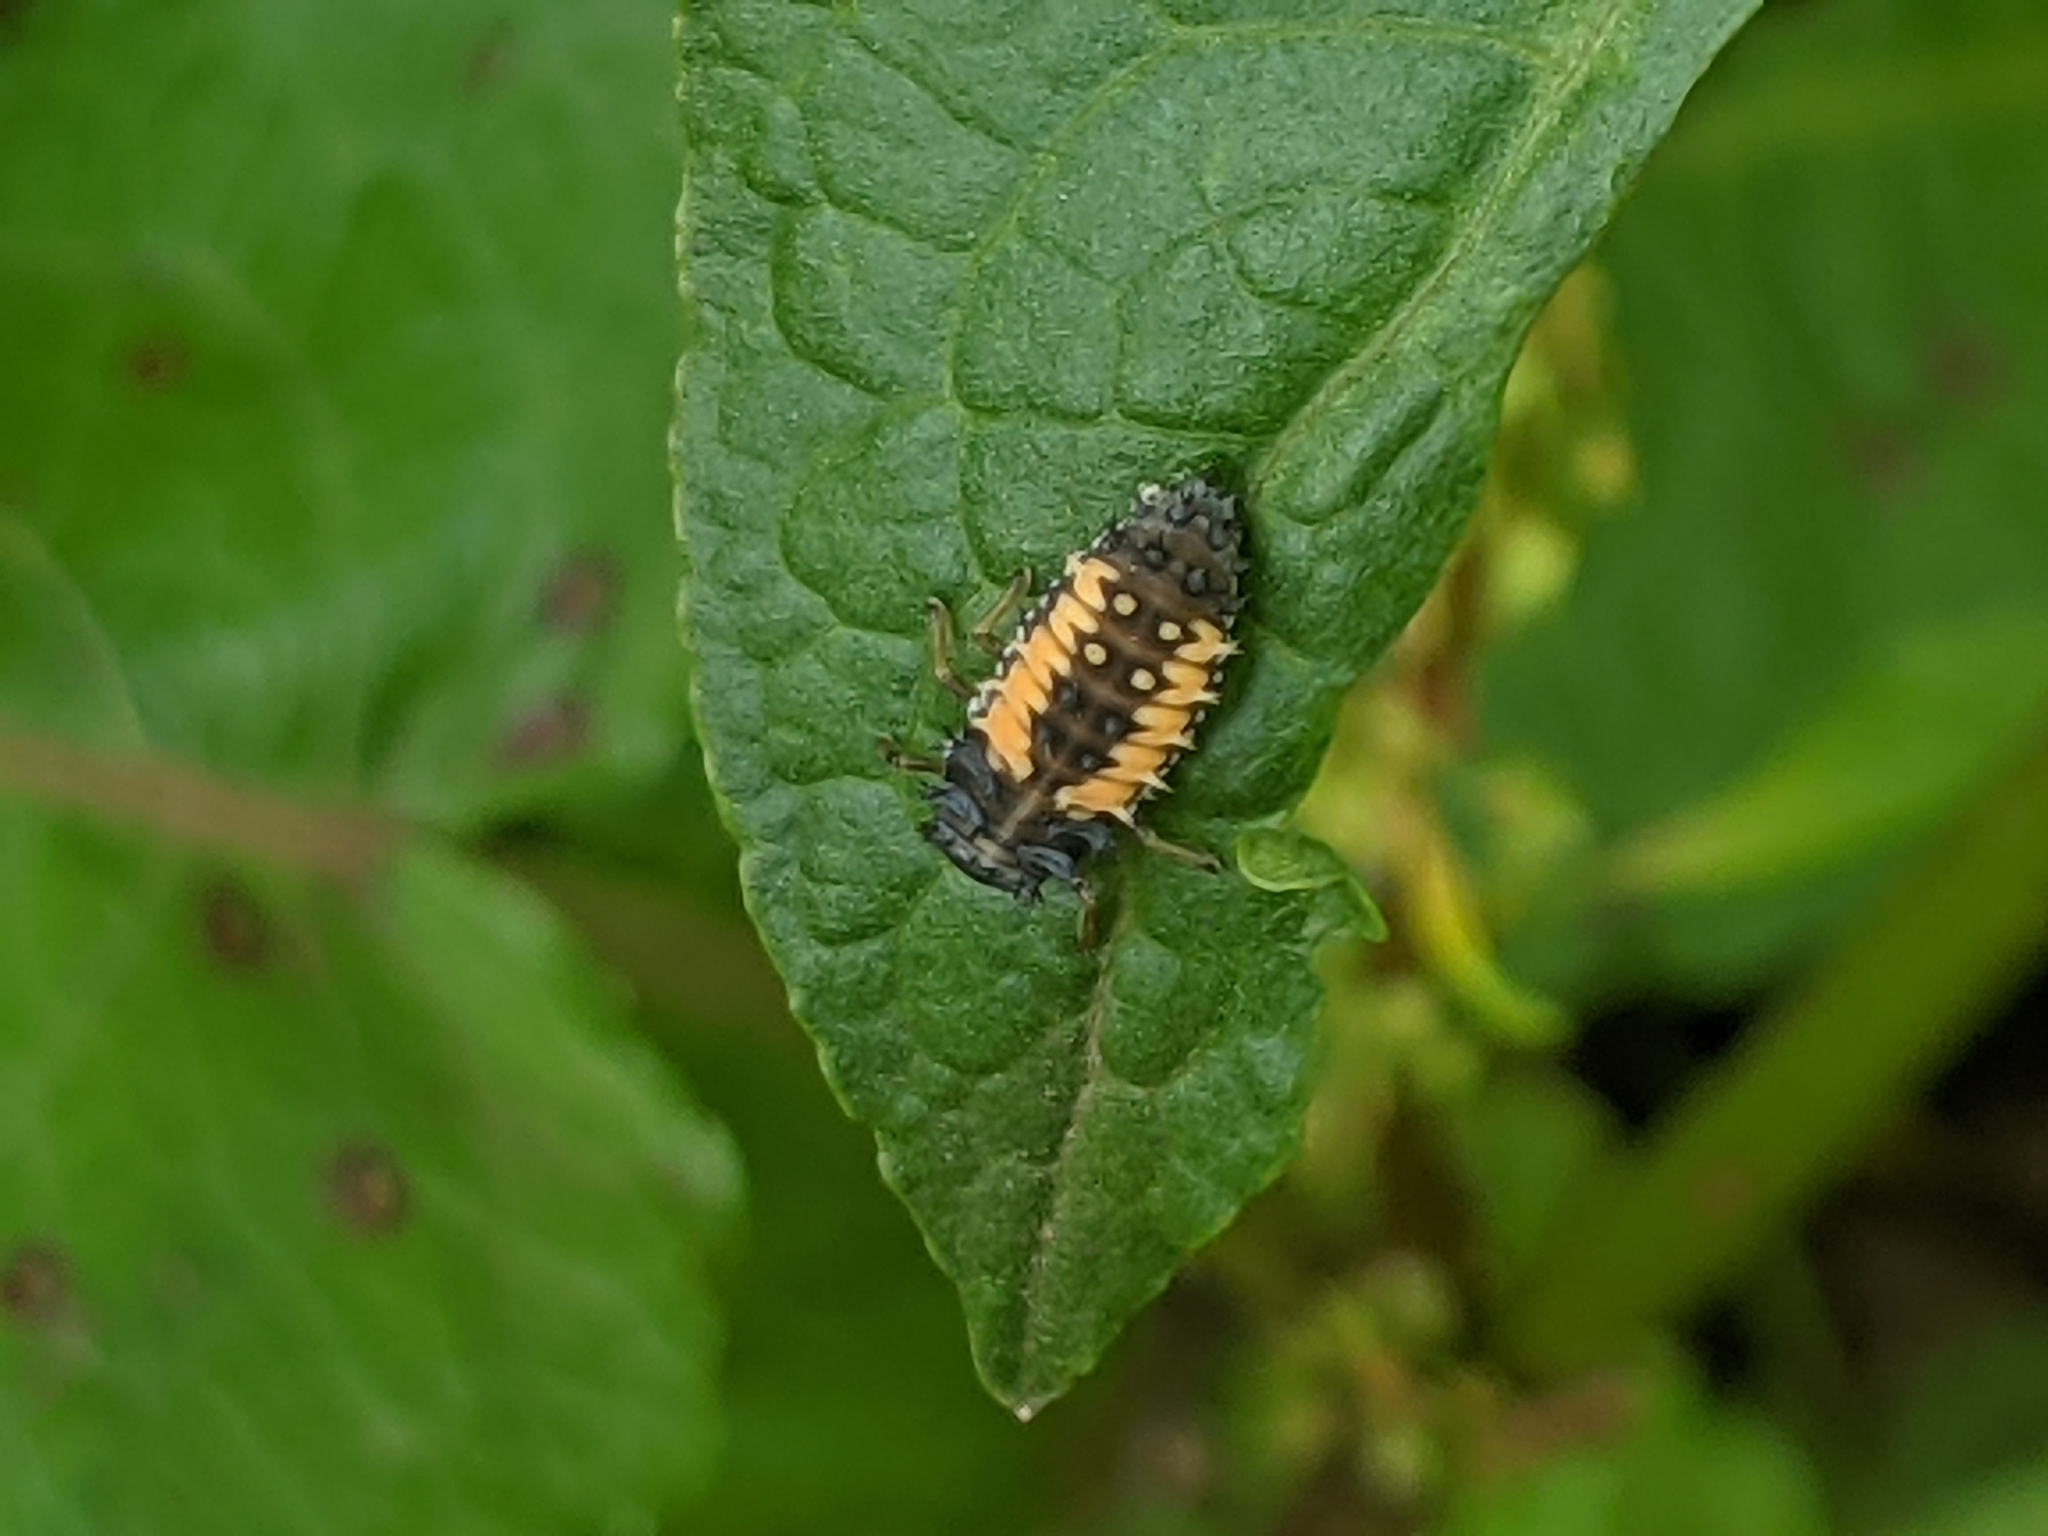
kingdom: Animalia
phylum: Arthropoda
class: Insecta
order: Coleoptera
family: Coccinellidae
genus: Harmonia
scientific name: Harmonia axyridis
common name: Harlequin ladybird
